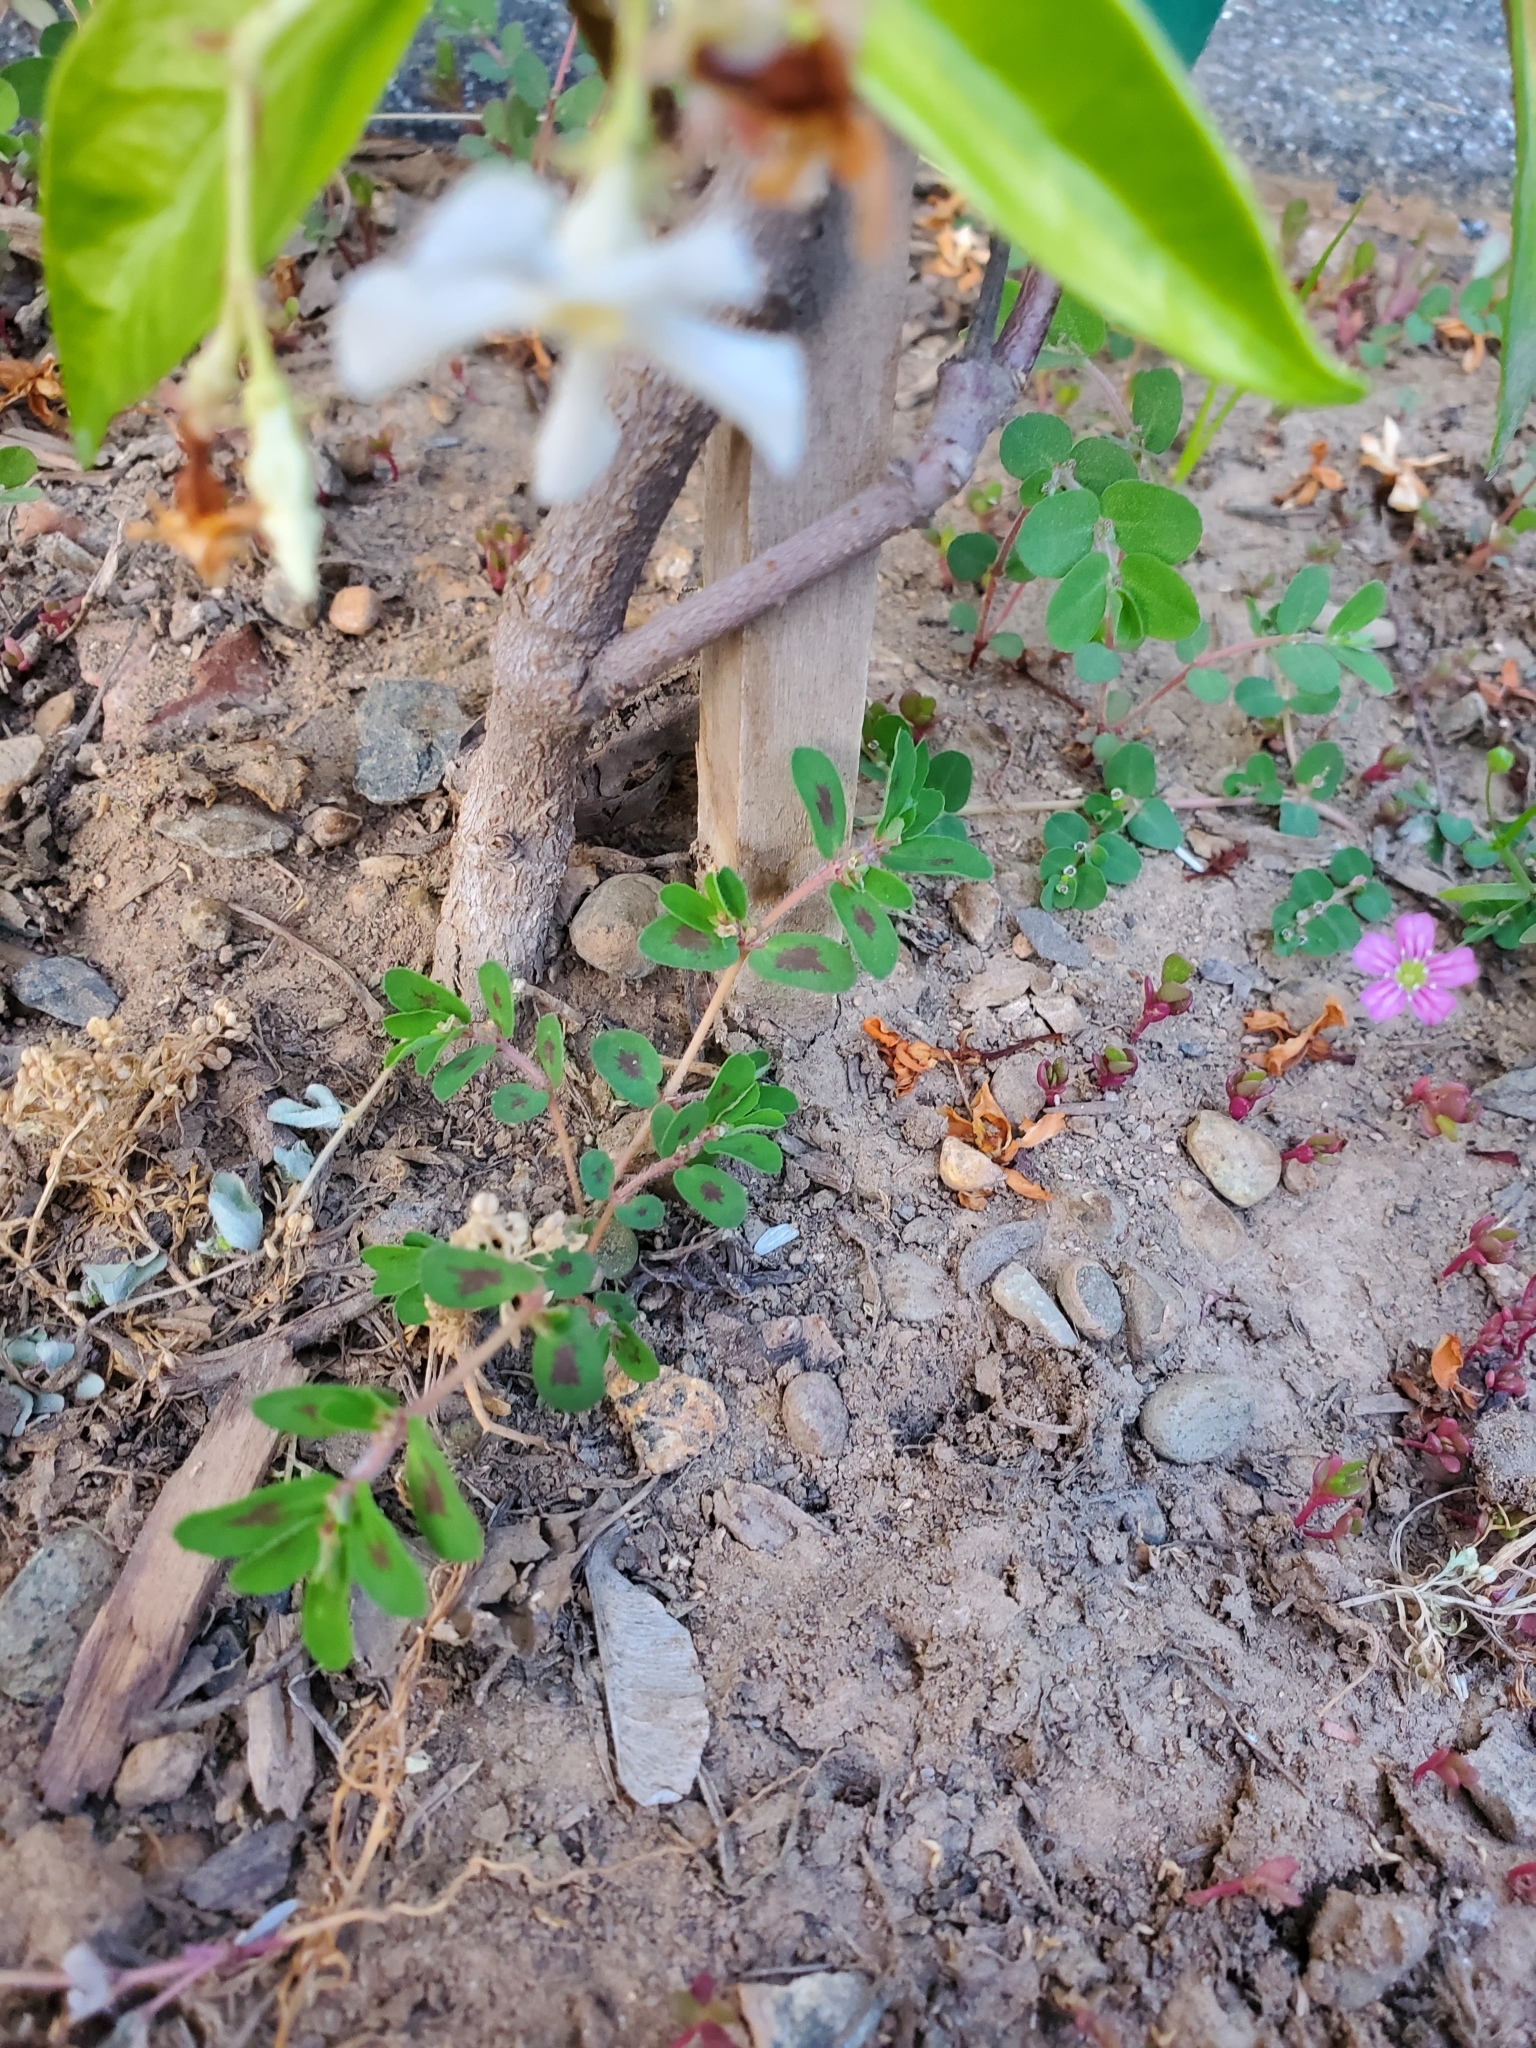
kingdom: Plantae
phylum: Tracheophyta
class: Magnoliopsida
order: Malpighiales
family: Euphorbiaceae
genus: Euphorbia
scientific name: Euphorbia maculata
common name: Spotted spurge
